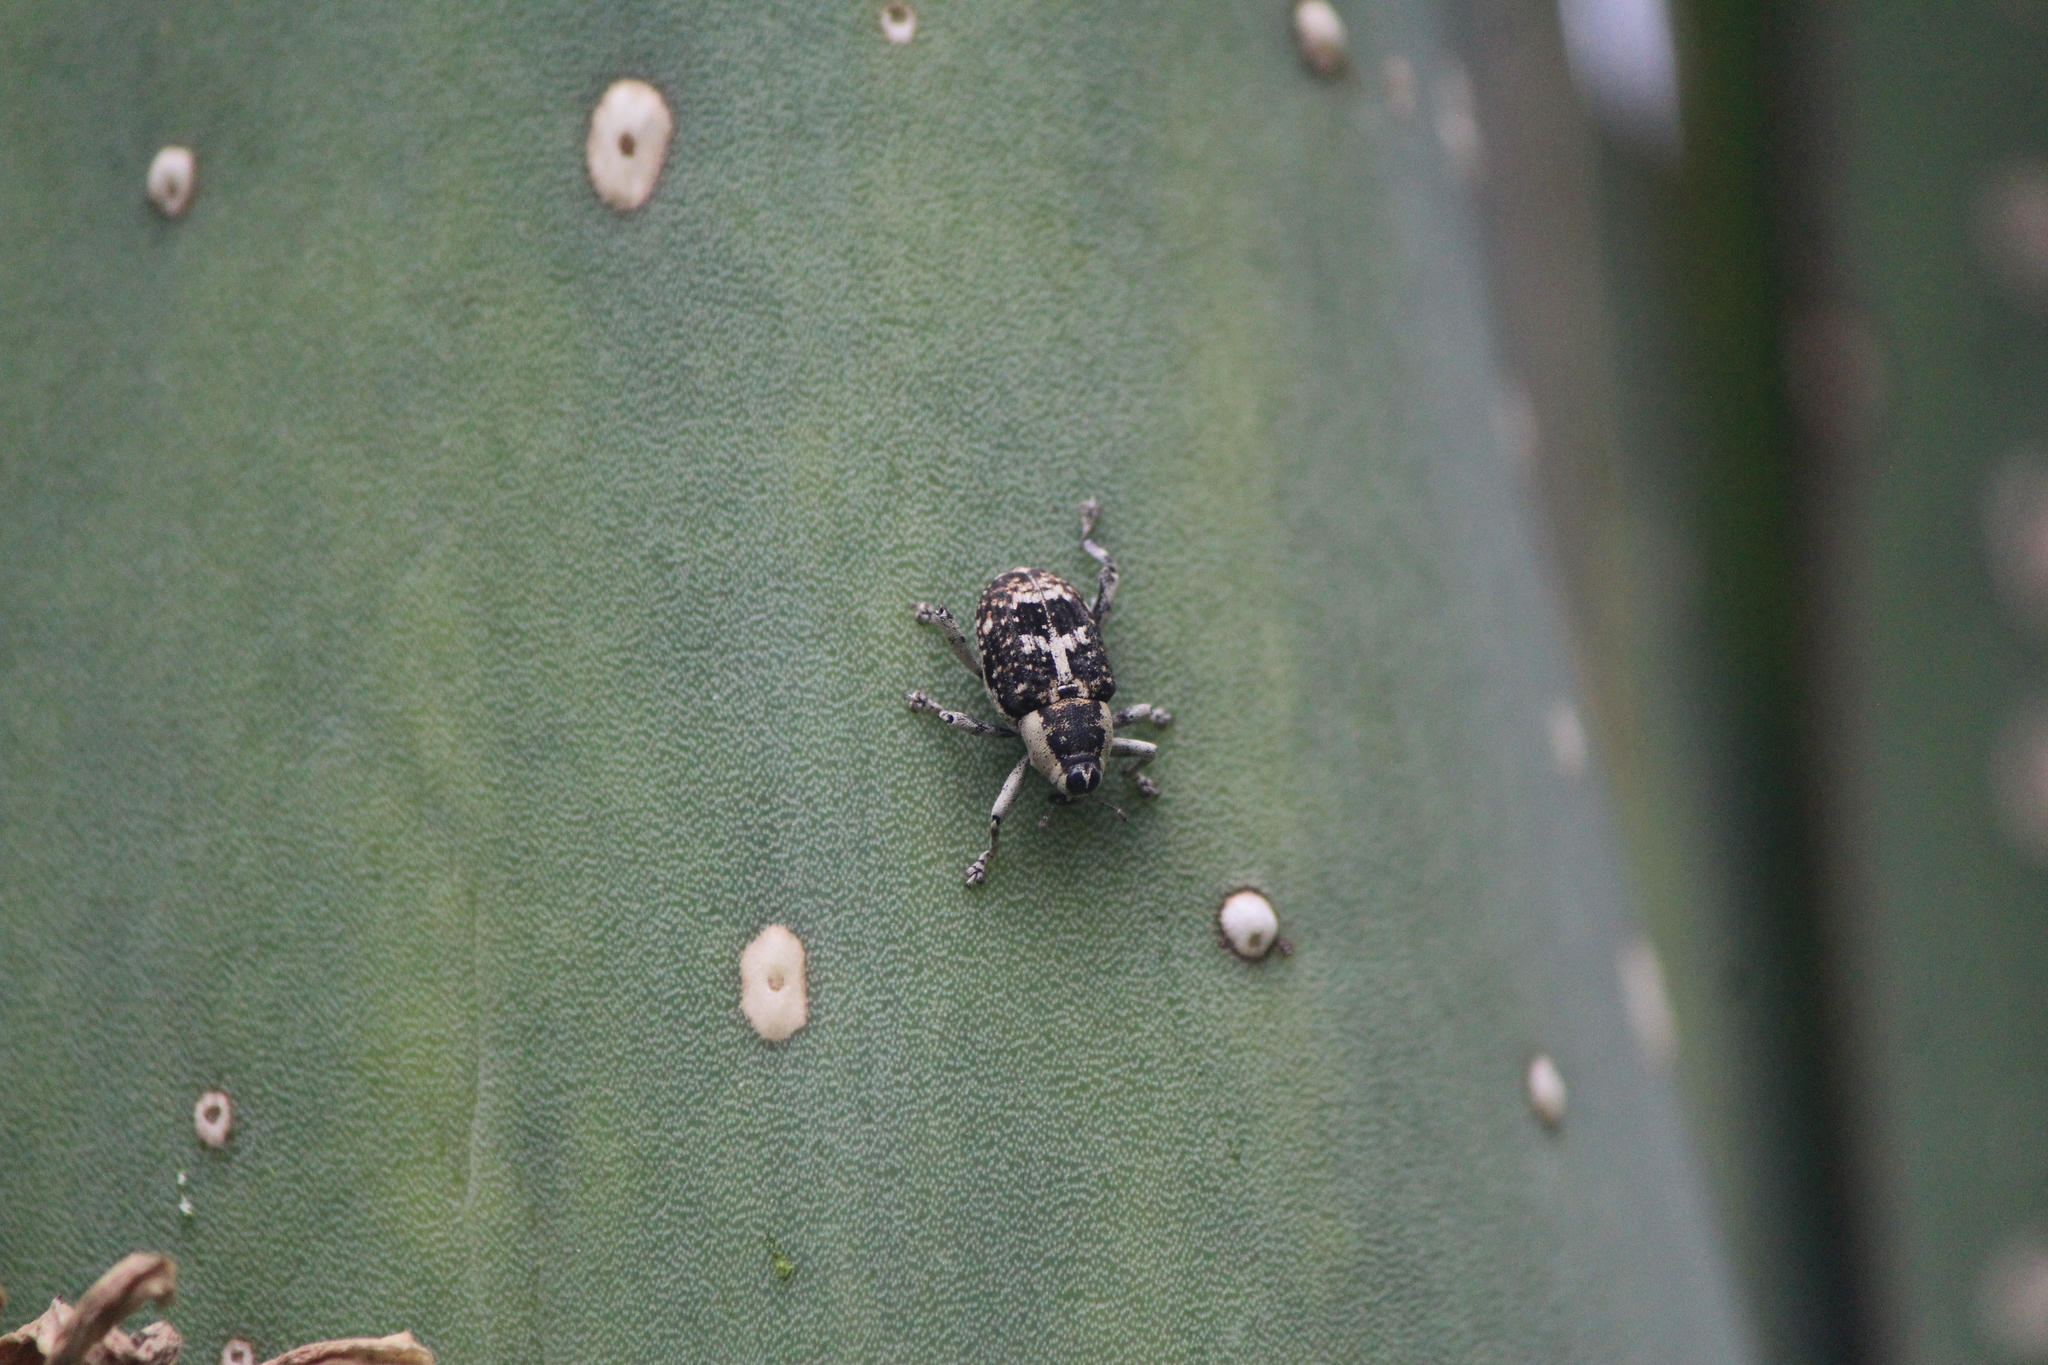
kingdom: Animalia
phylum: Arthropoda
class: Insecta
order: Coleoptera
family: Curculionidae
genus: Peltophorus
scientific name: Peltophorus polymitus
